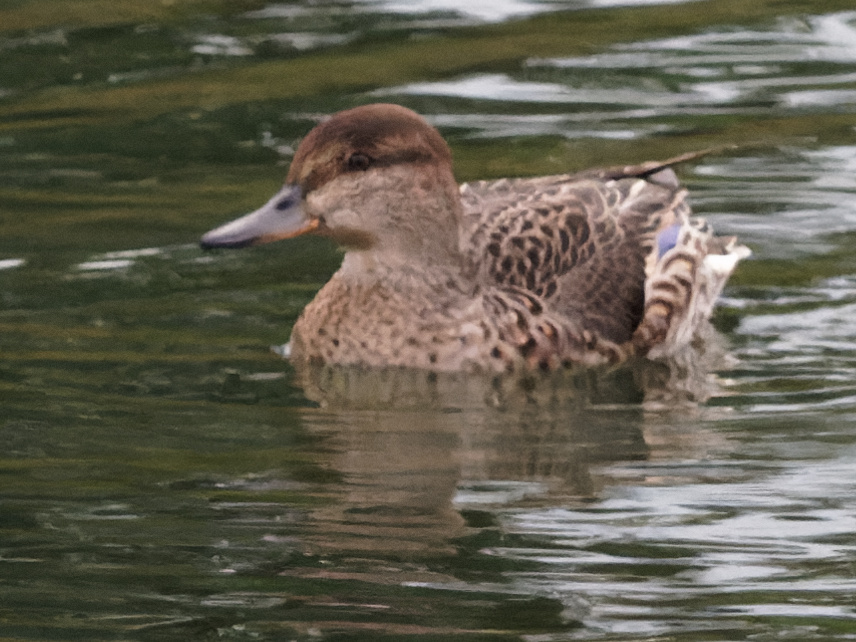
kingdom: Animalia
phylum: Chordata
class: Aves
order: Anseriformes
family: Anatidae
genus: Anas
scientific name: Anas crecca
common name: Eurasian teal
